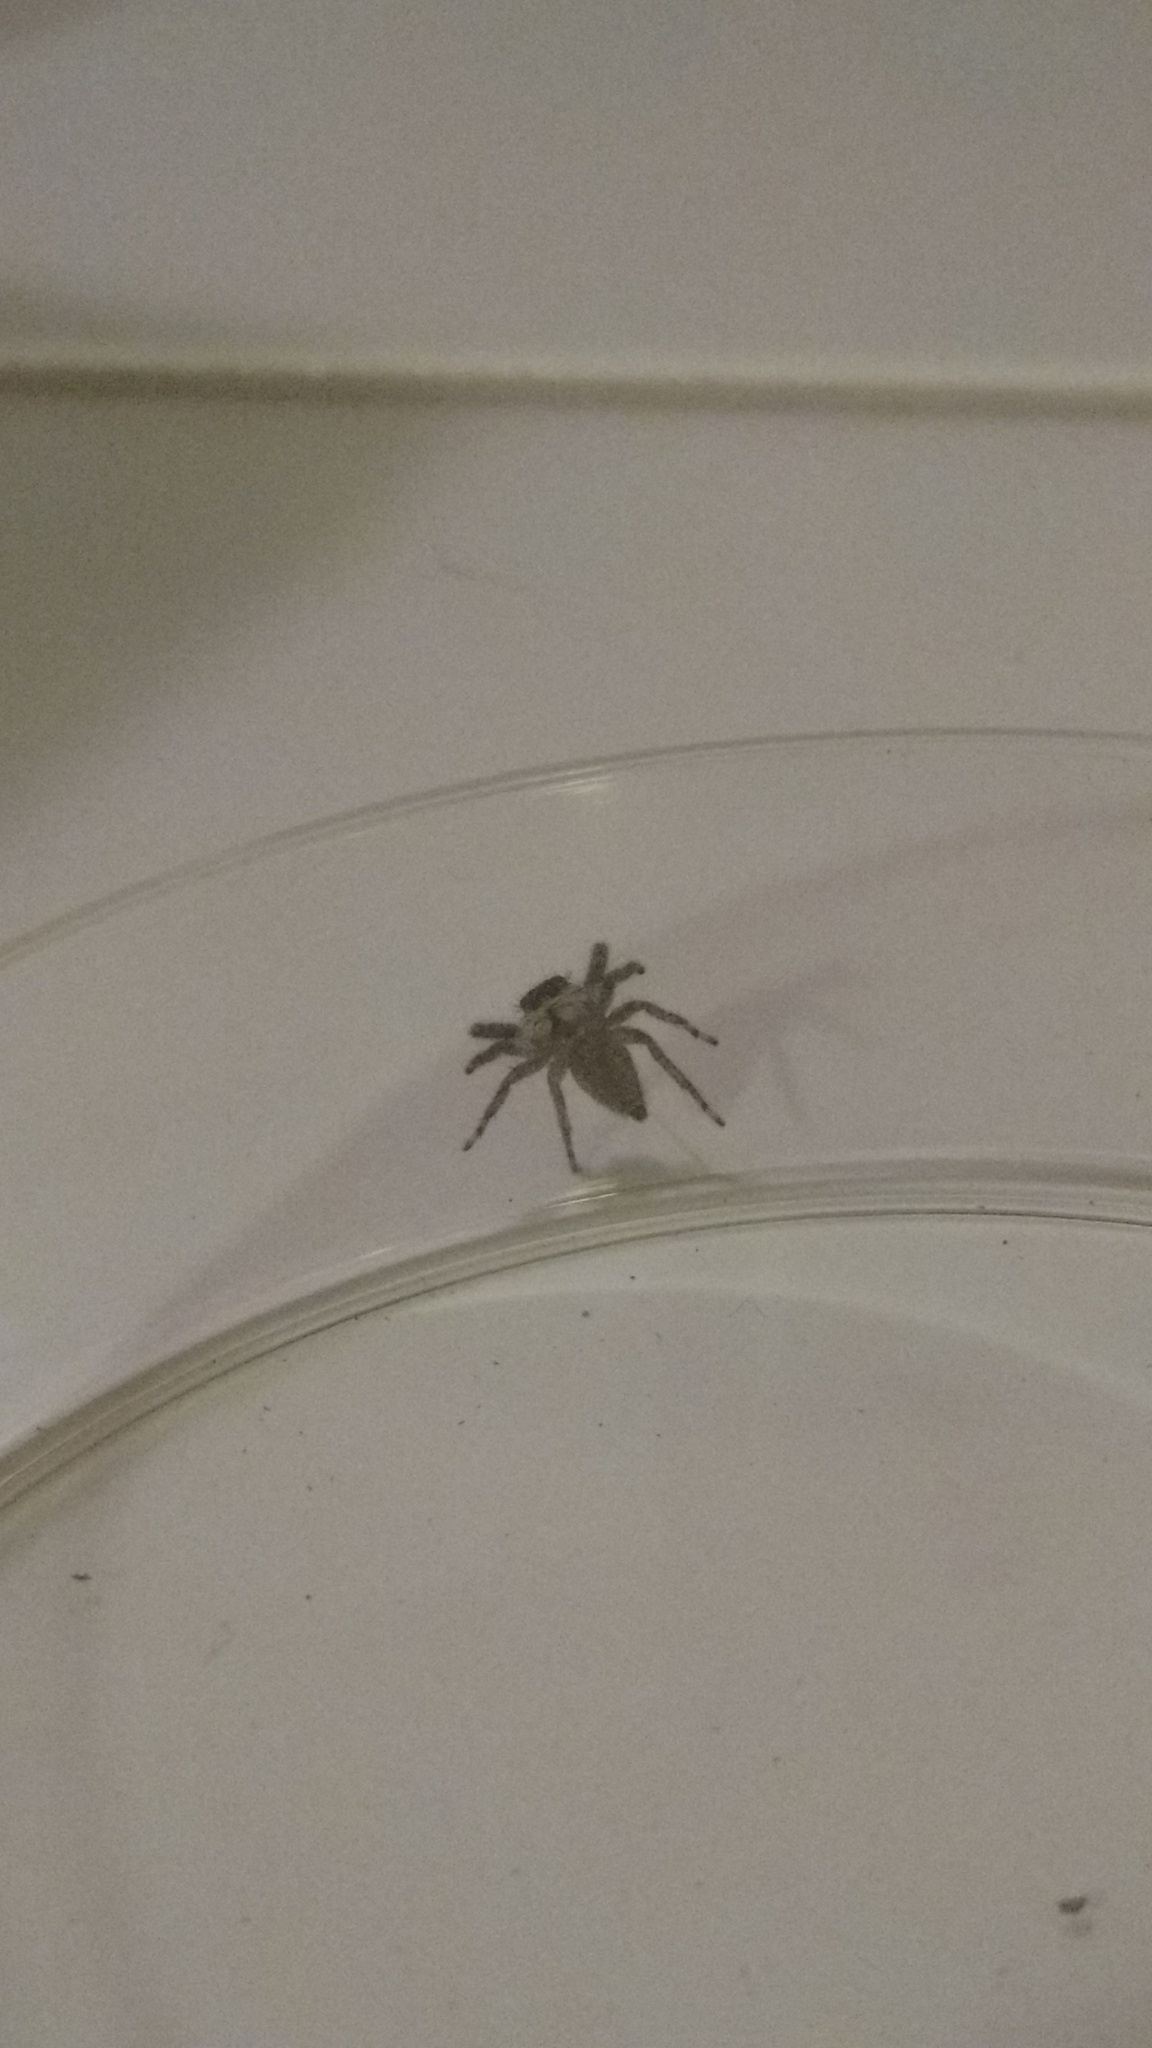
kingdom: Animalia
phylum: Arthropoda
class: Arachnida
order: Araneae
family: Salticidae
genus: Platycryptus
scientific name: Platycryptus californicus
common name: Jumping spiders
